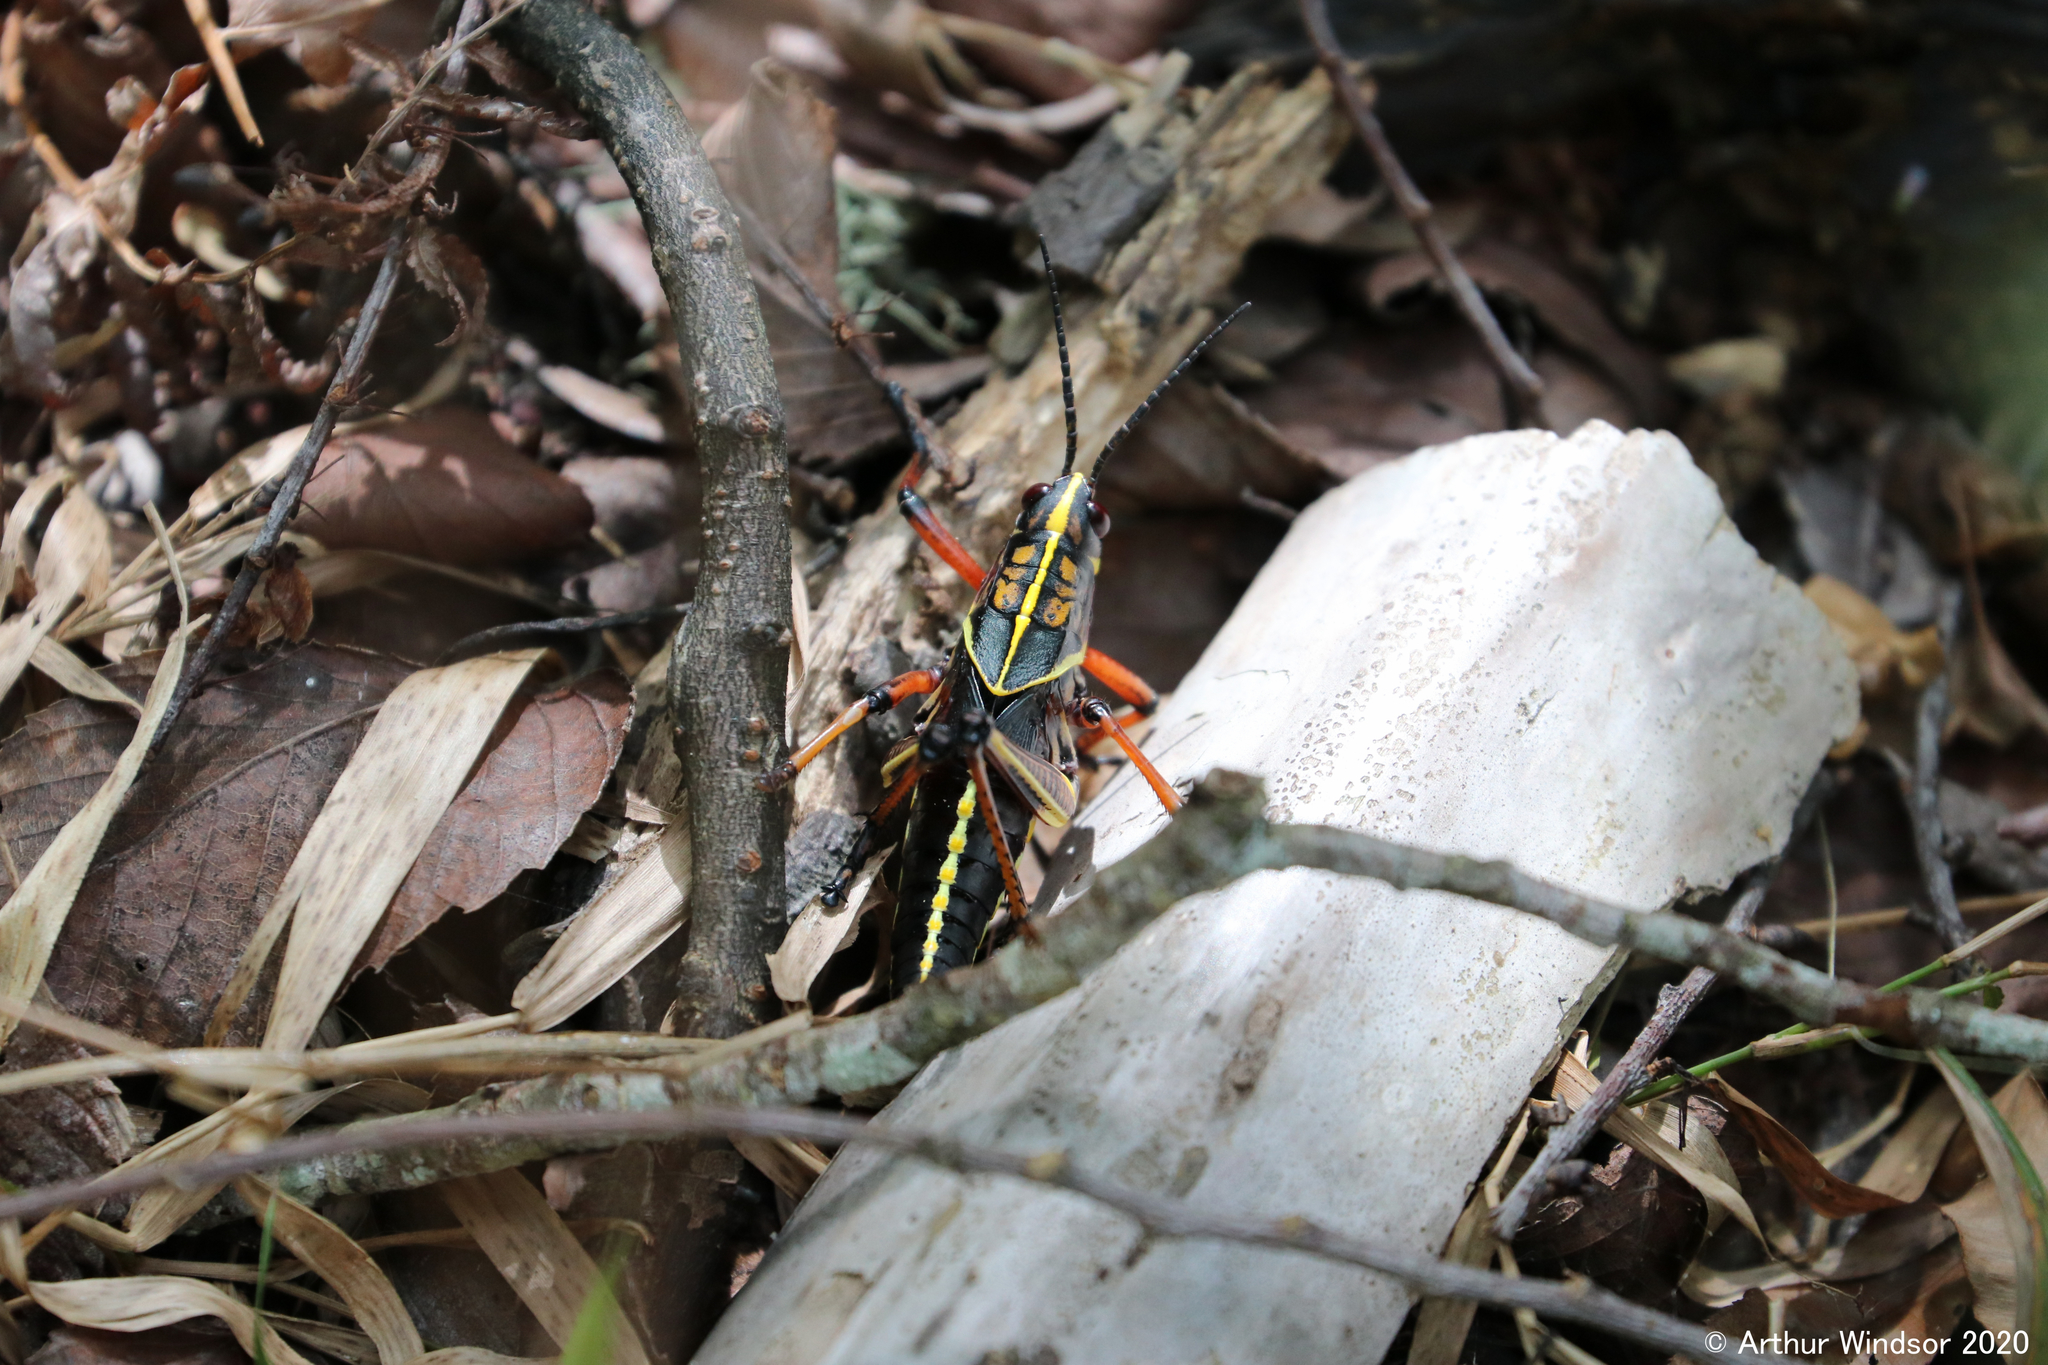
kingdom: Animalia
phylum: Arthropoda
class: Insecta
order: Orthoptera
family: Romaleidae
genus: Romalea
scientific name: Romalea microptera
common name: Eastern lubber grasshopper
